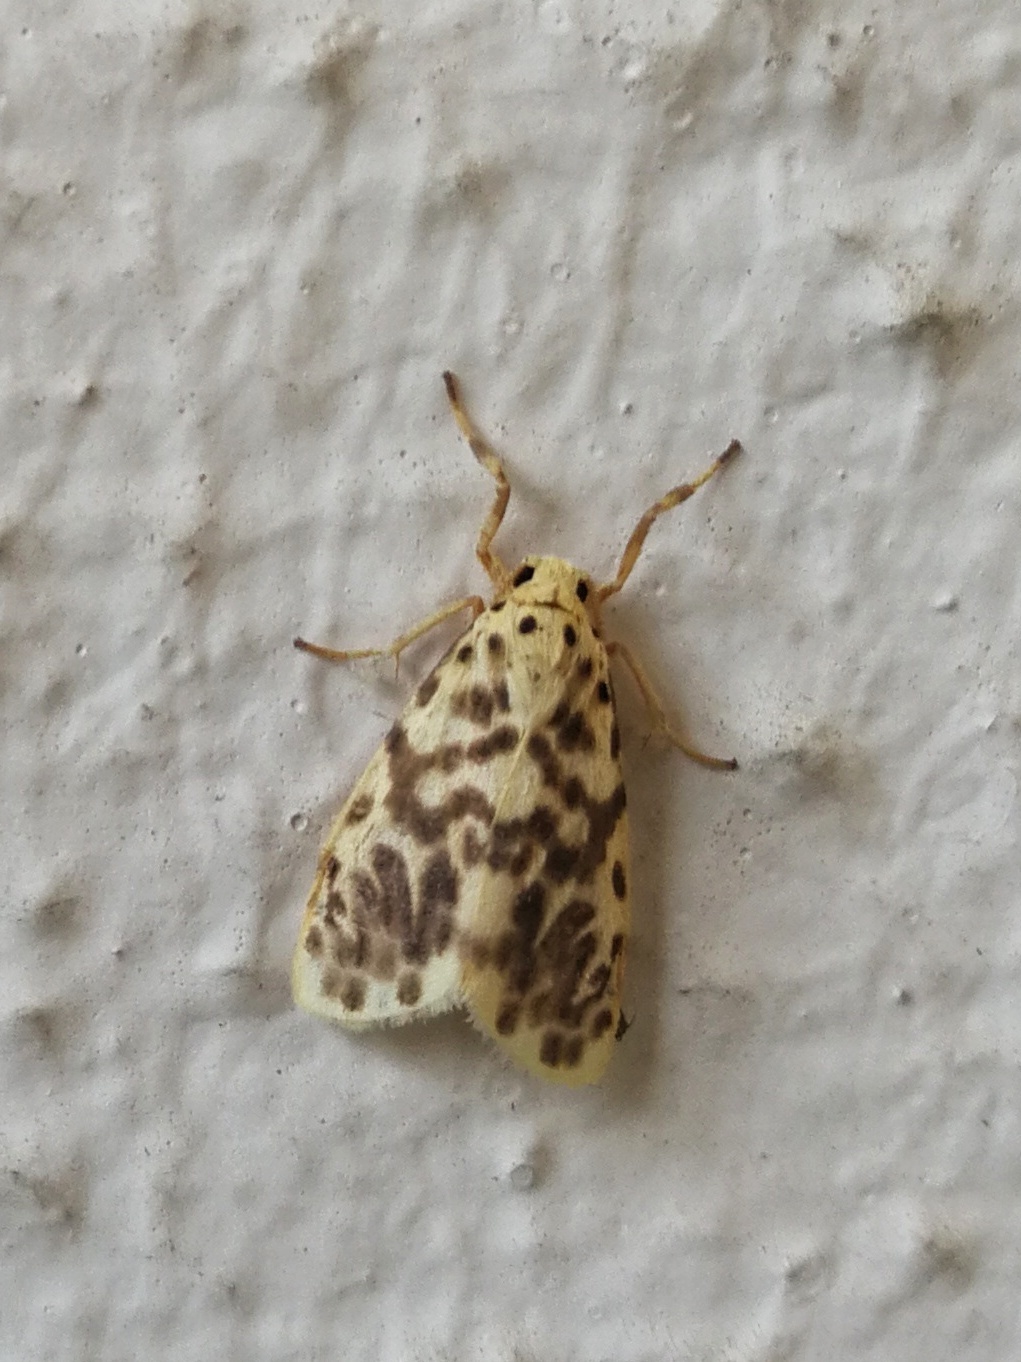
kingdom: Animalia
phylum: Arthropoda
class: Insecta
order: Lepidoptera
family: Erebidae
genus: Miltochrista
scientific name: Miltochrista semifascia
